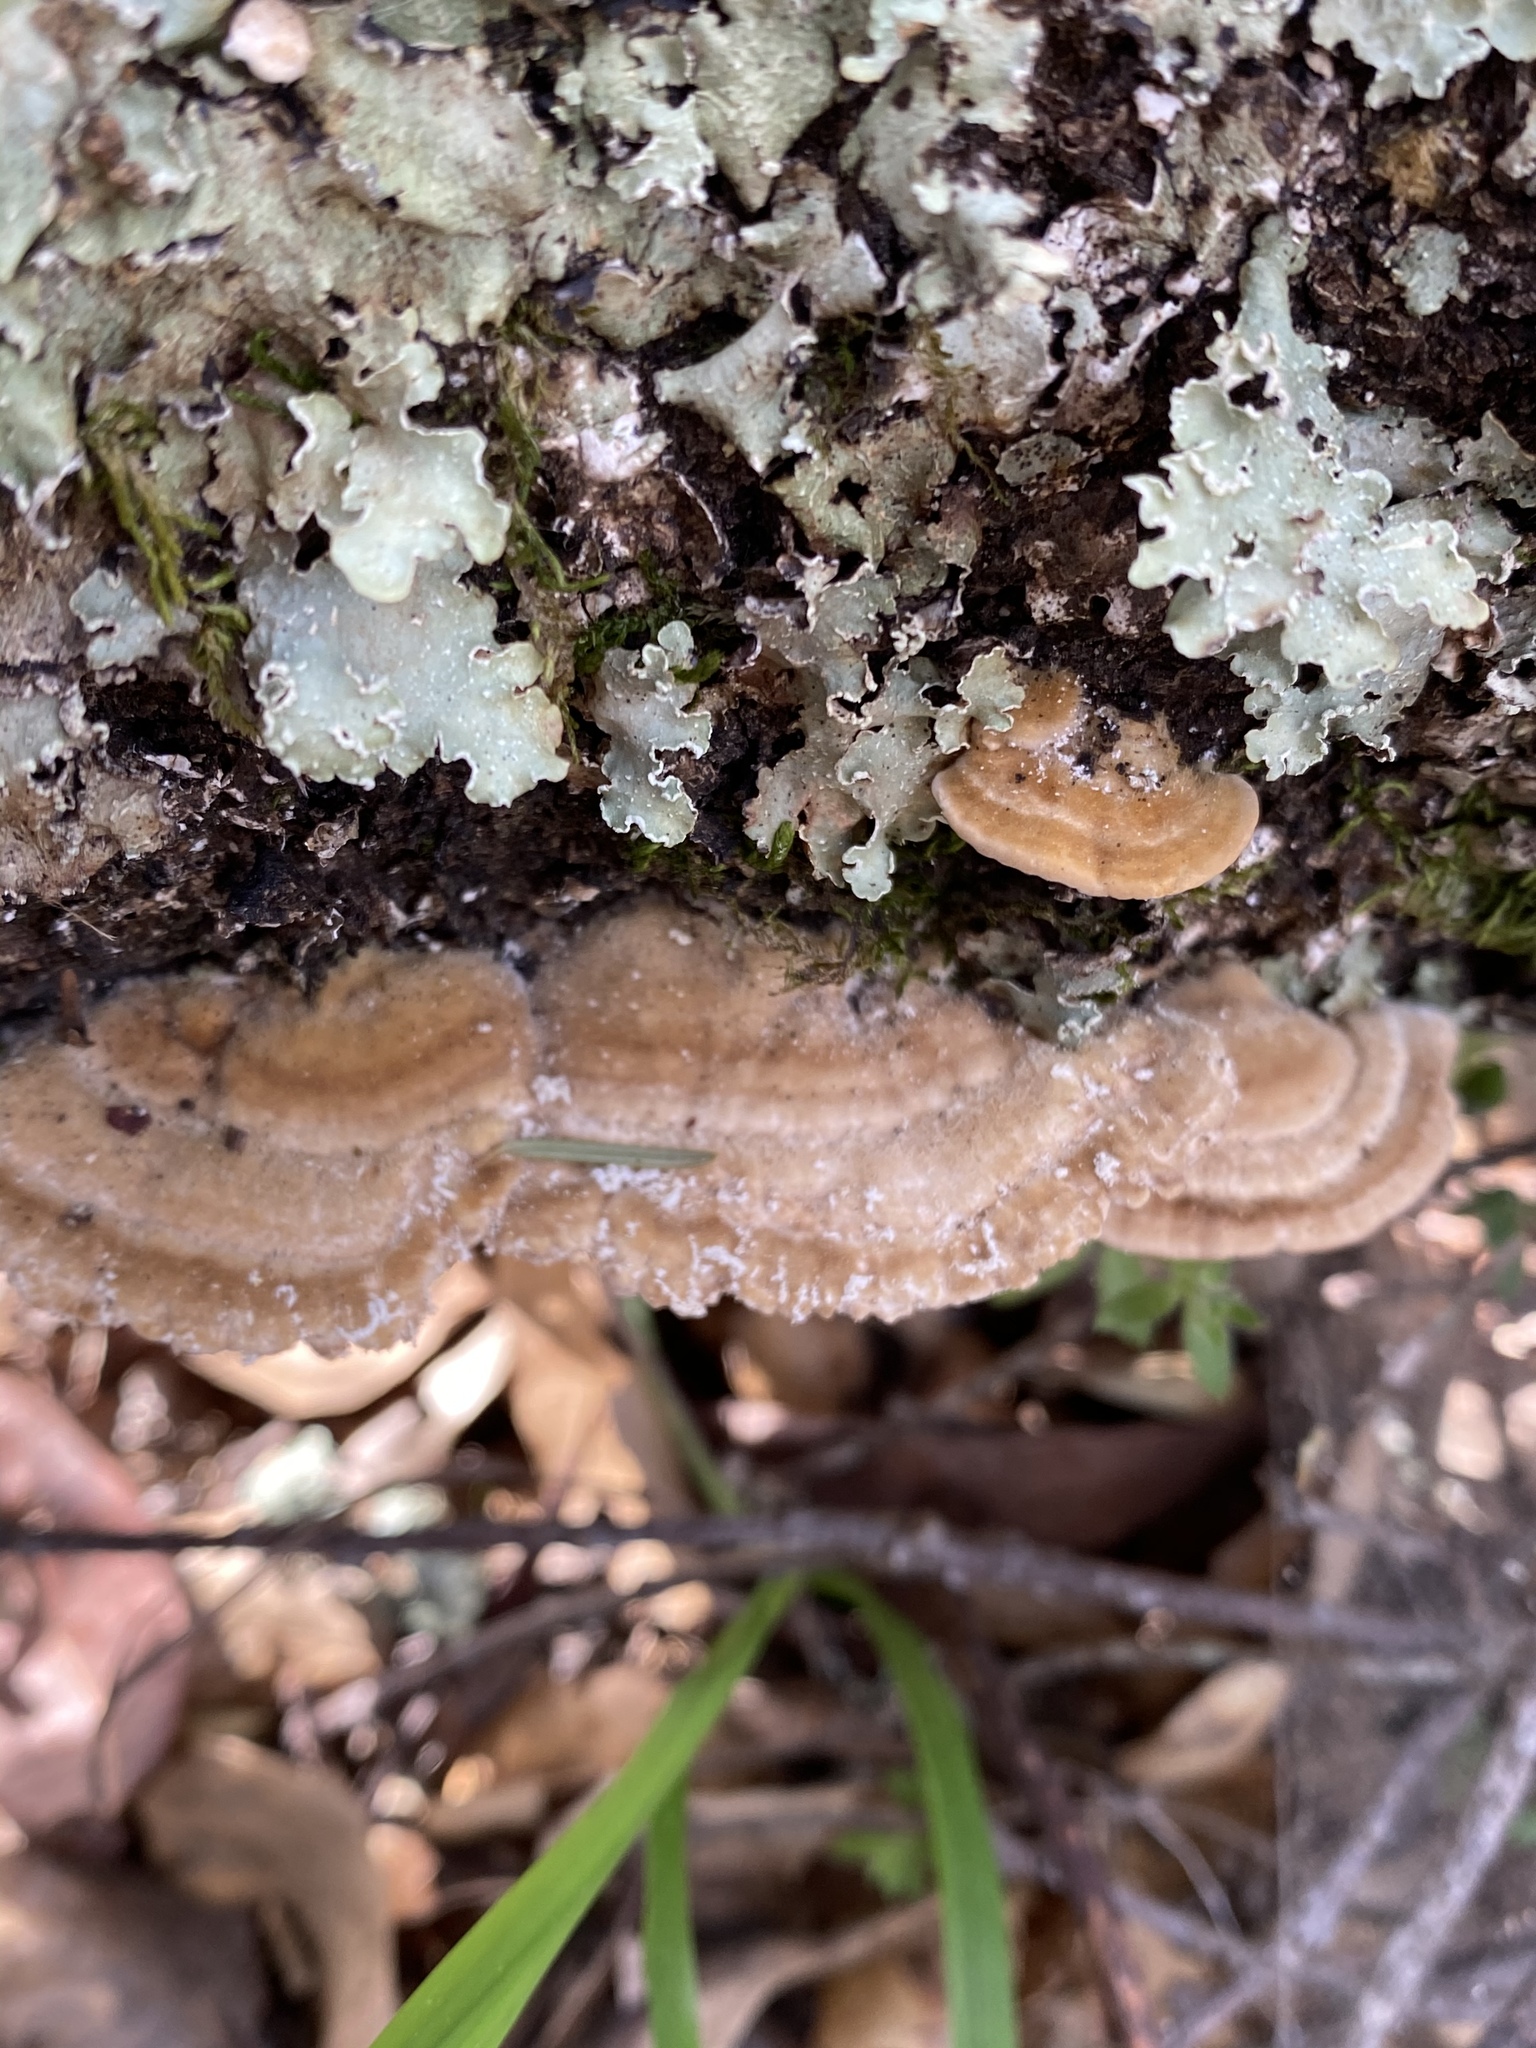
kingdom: Fungi
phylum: Basidiomycota
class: Agaricomycetes
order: Polyporales
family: Polyporaceae
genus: Lenzites
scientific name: Lenzites betulinus
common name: Birch mazegill
